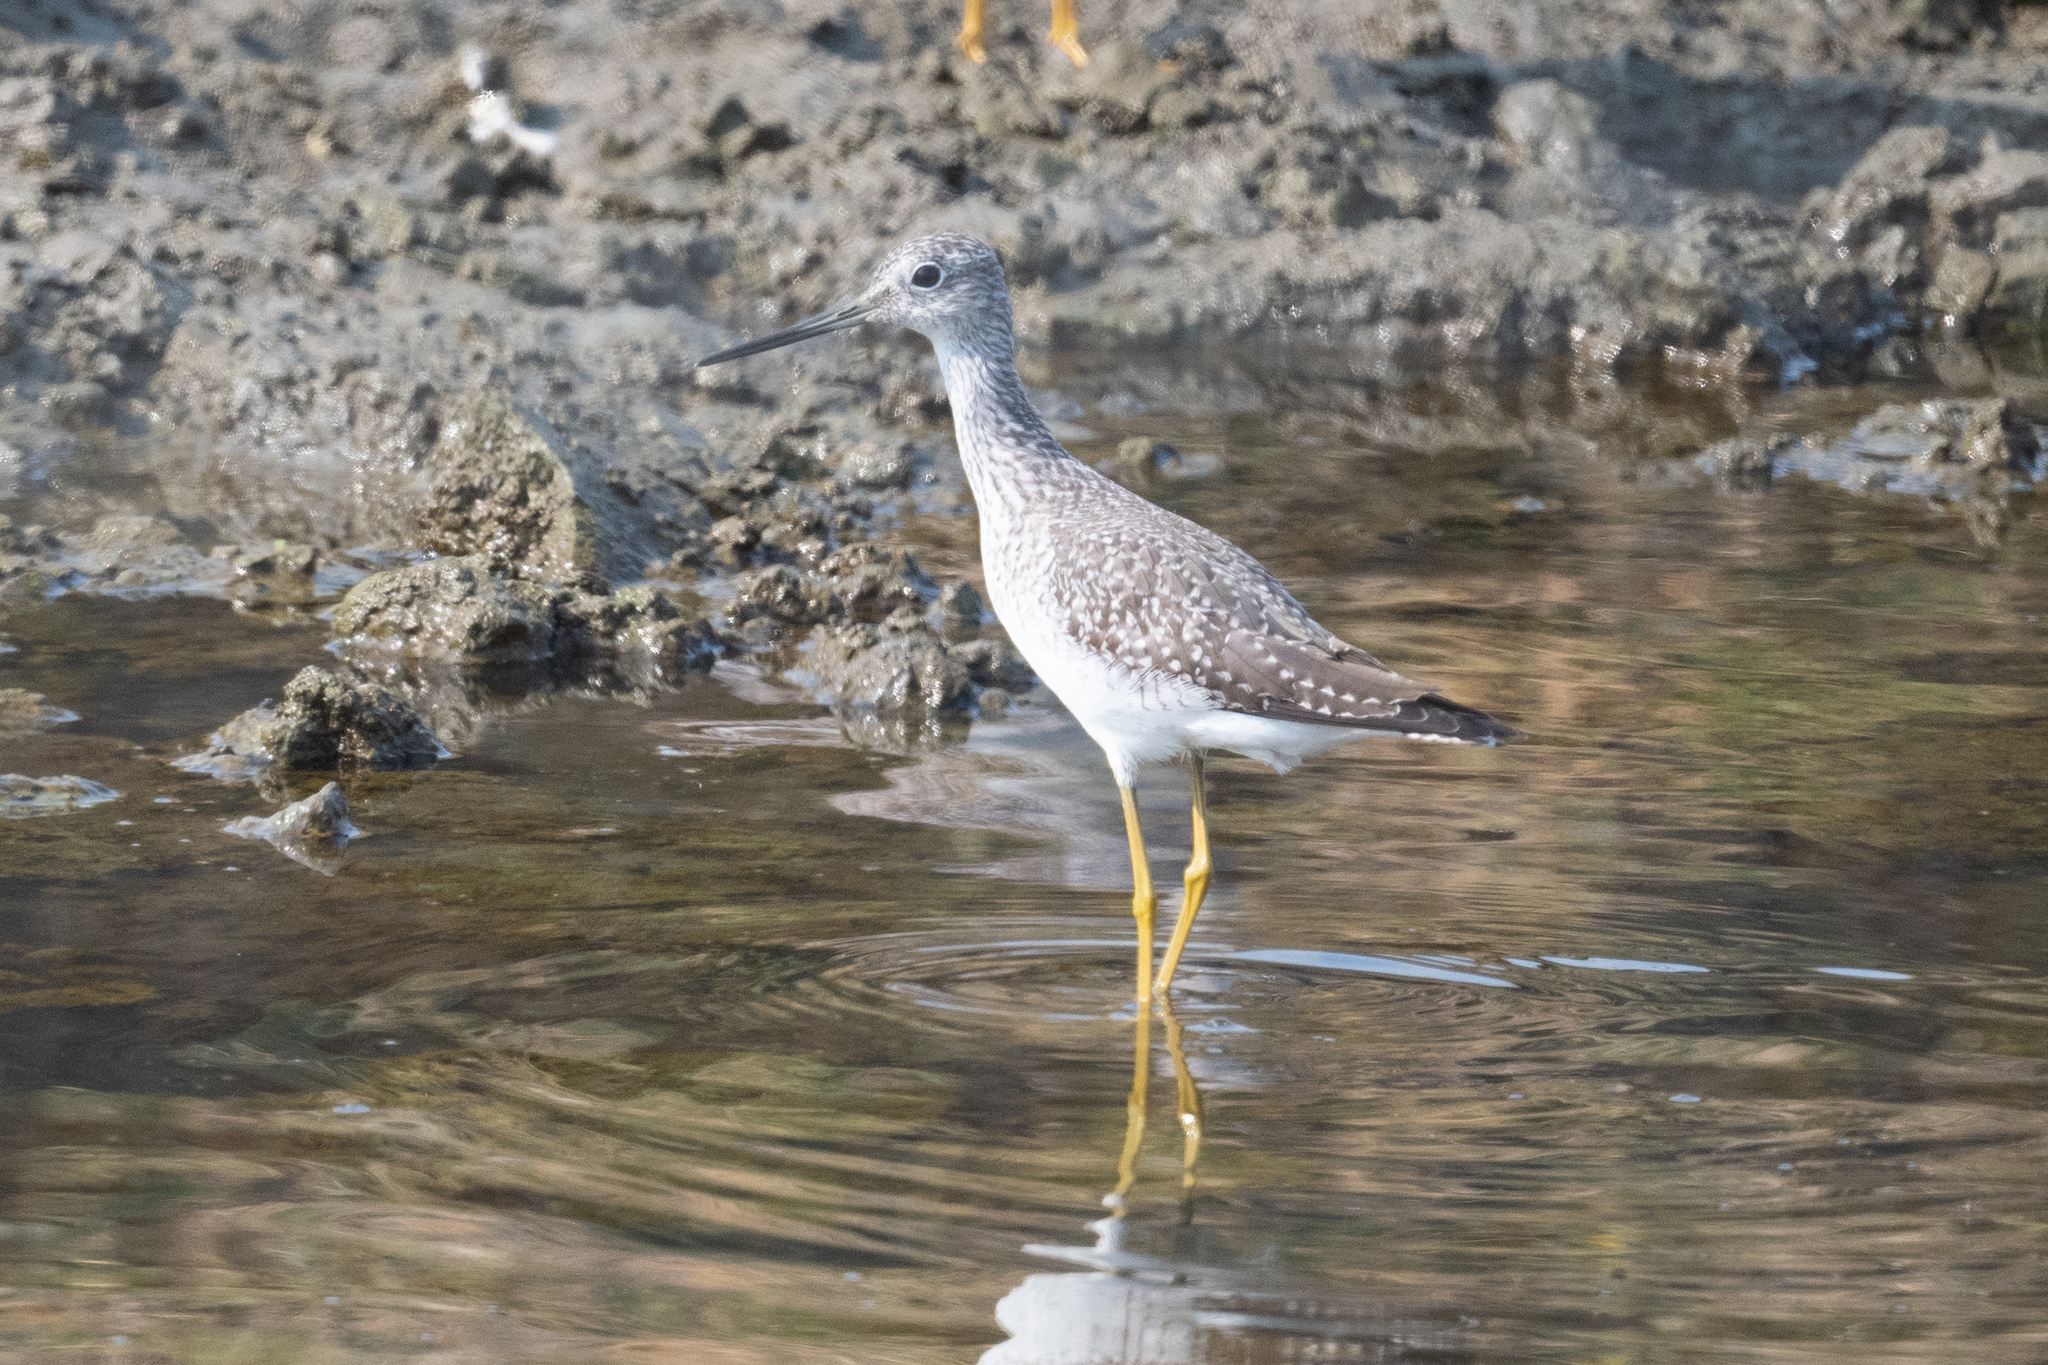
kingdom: Animalia
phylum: Chordata
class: Aves
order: Charadriiformes
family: Scolopacidae
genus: Tringa
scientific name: Tringa melanoleuca
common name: Greater yellowlegs
